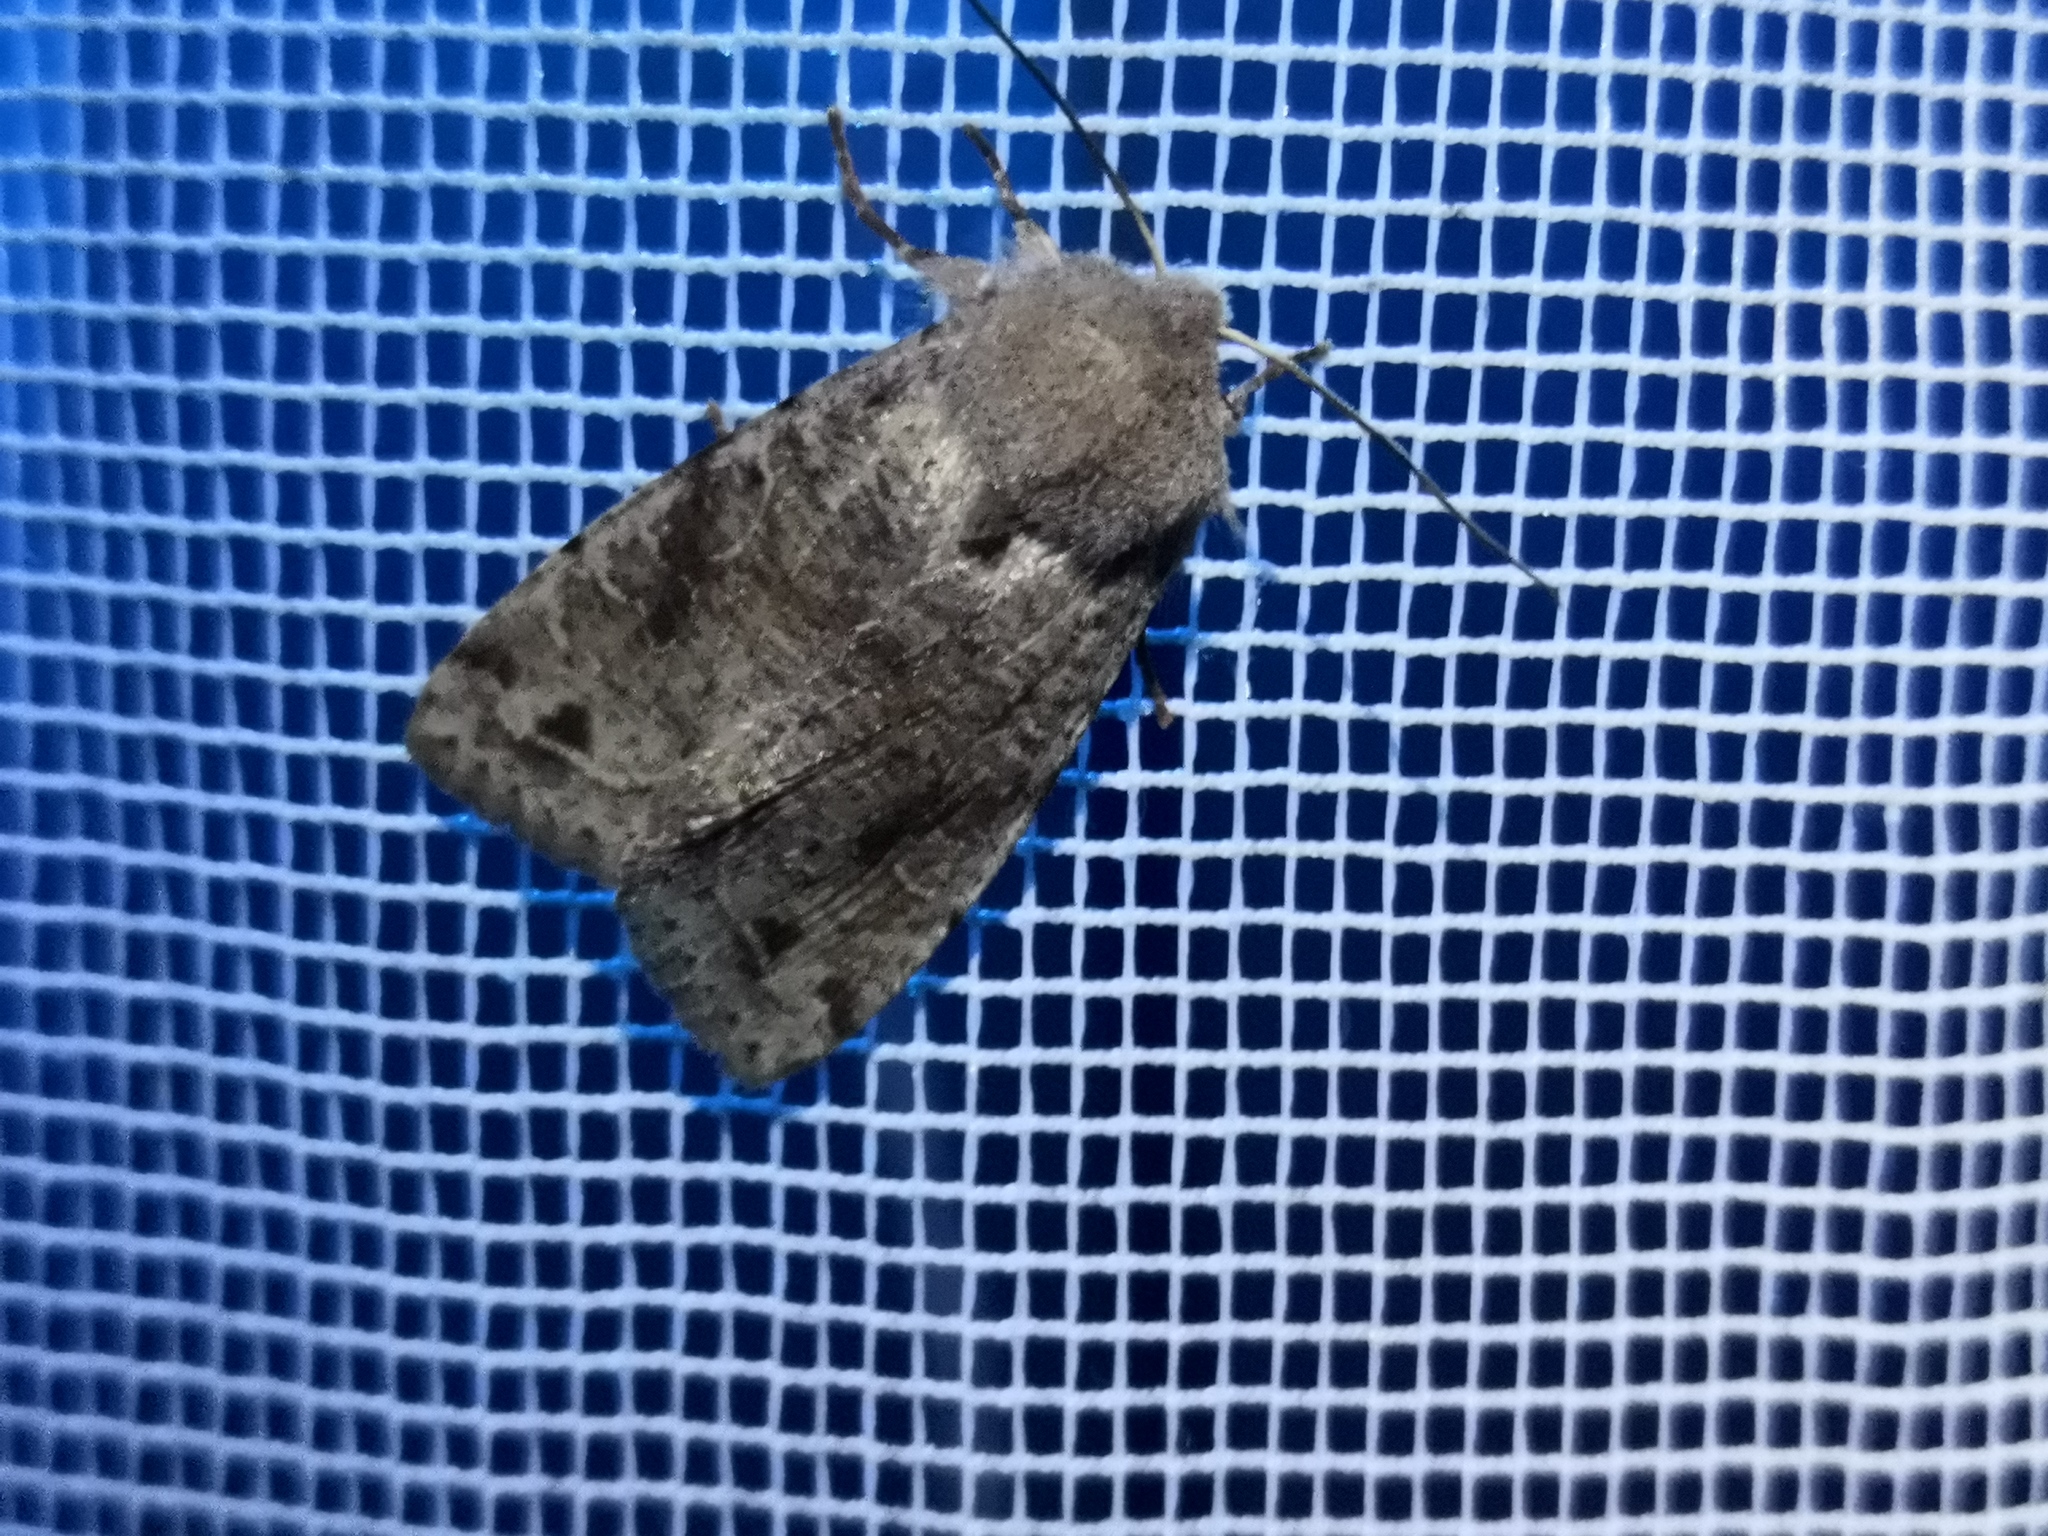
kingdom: Animalia
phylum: Arthropoda
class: Insecta
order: Lepidoptera
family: Noctuidae
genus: Orthosia
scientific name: Orthosia incerta
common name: Clouded drab
